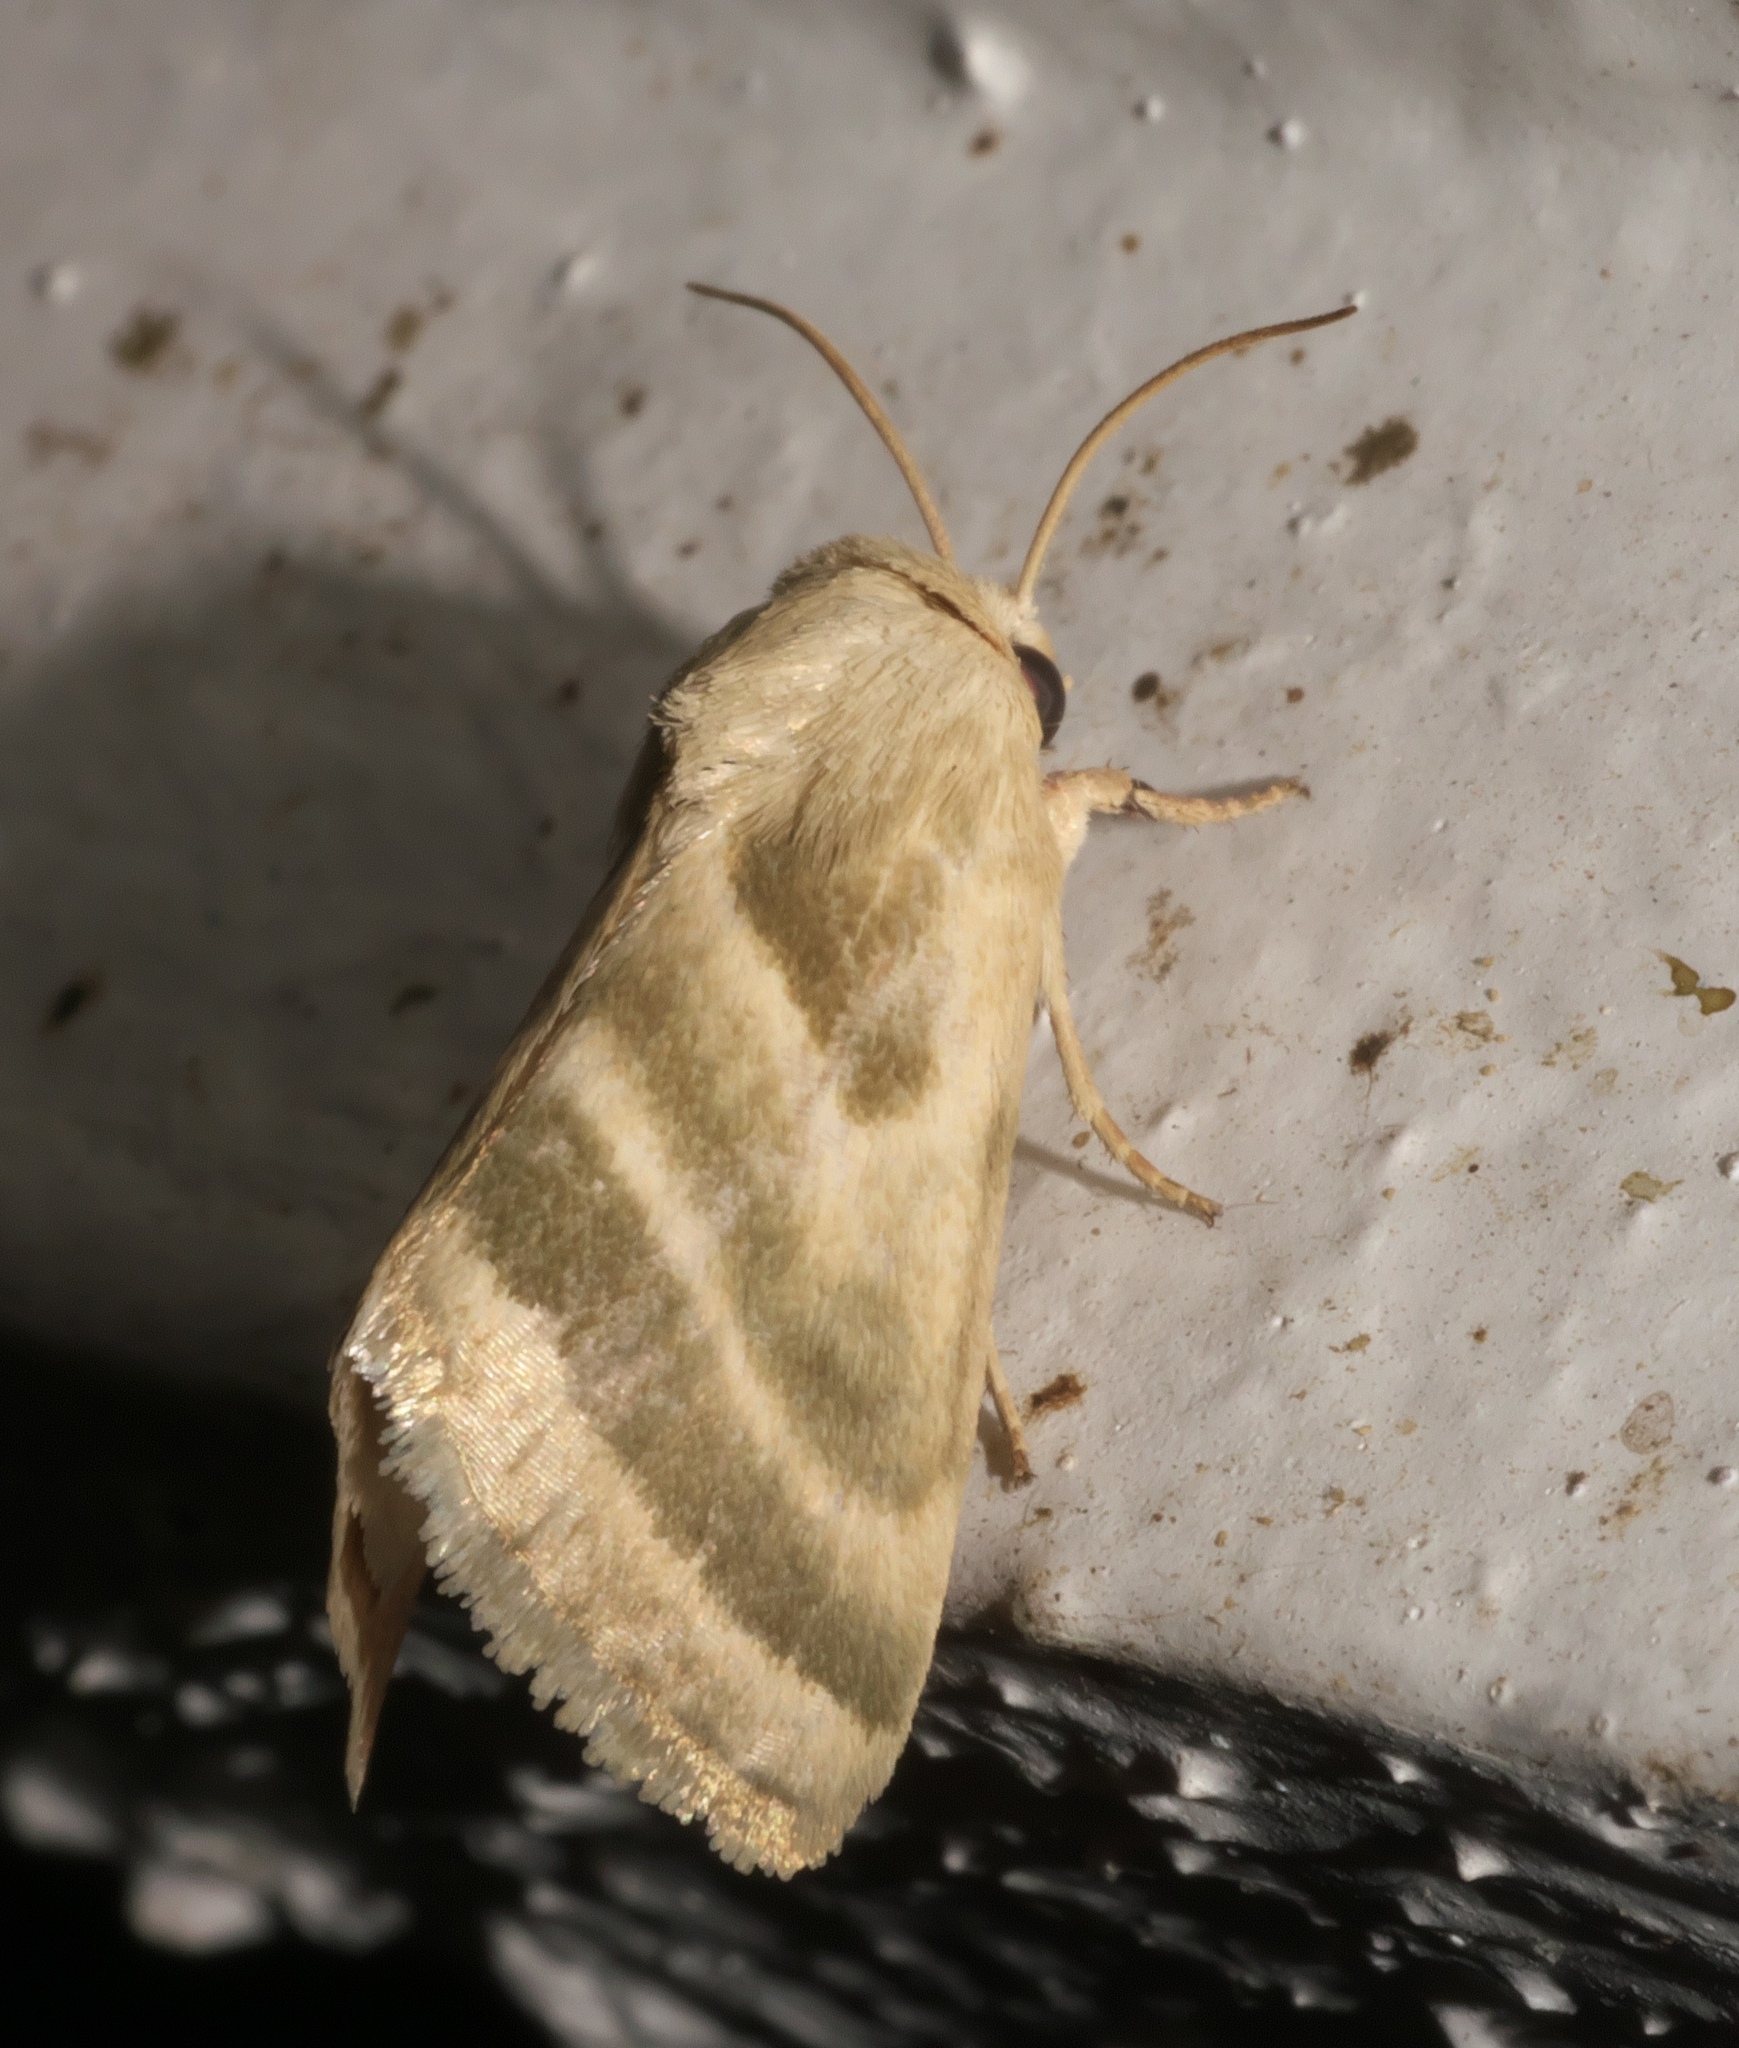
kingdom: Animalia
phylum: Arthropoda
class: Insecta
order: Lepidoptera
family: Noctuidae
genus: Schinia
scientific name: Schinia trifascia
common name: Three-lined flower moth
